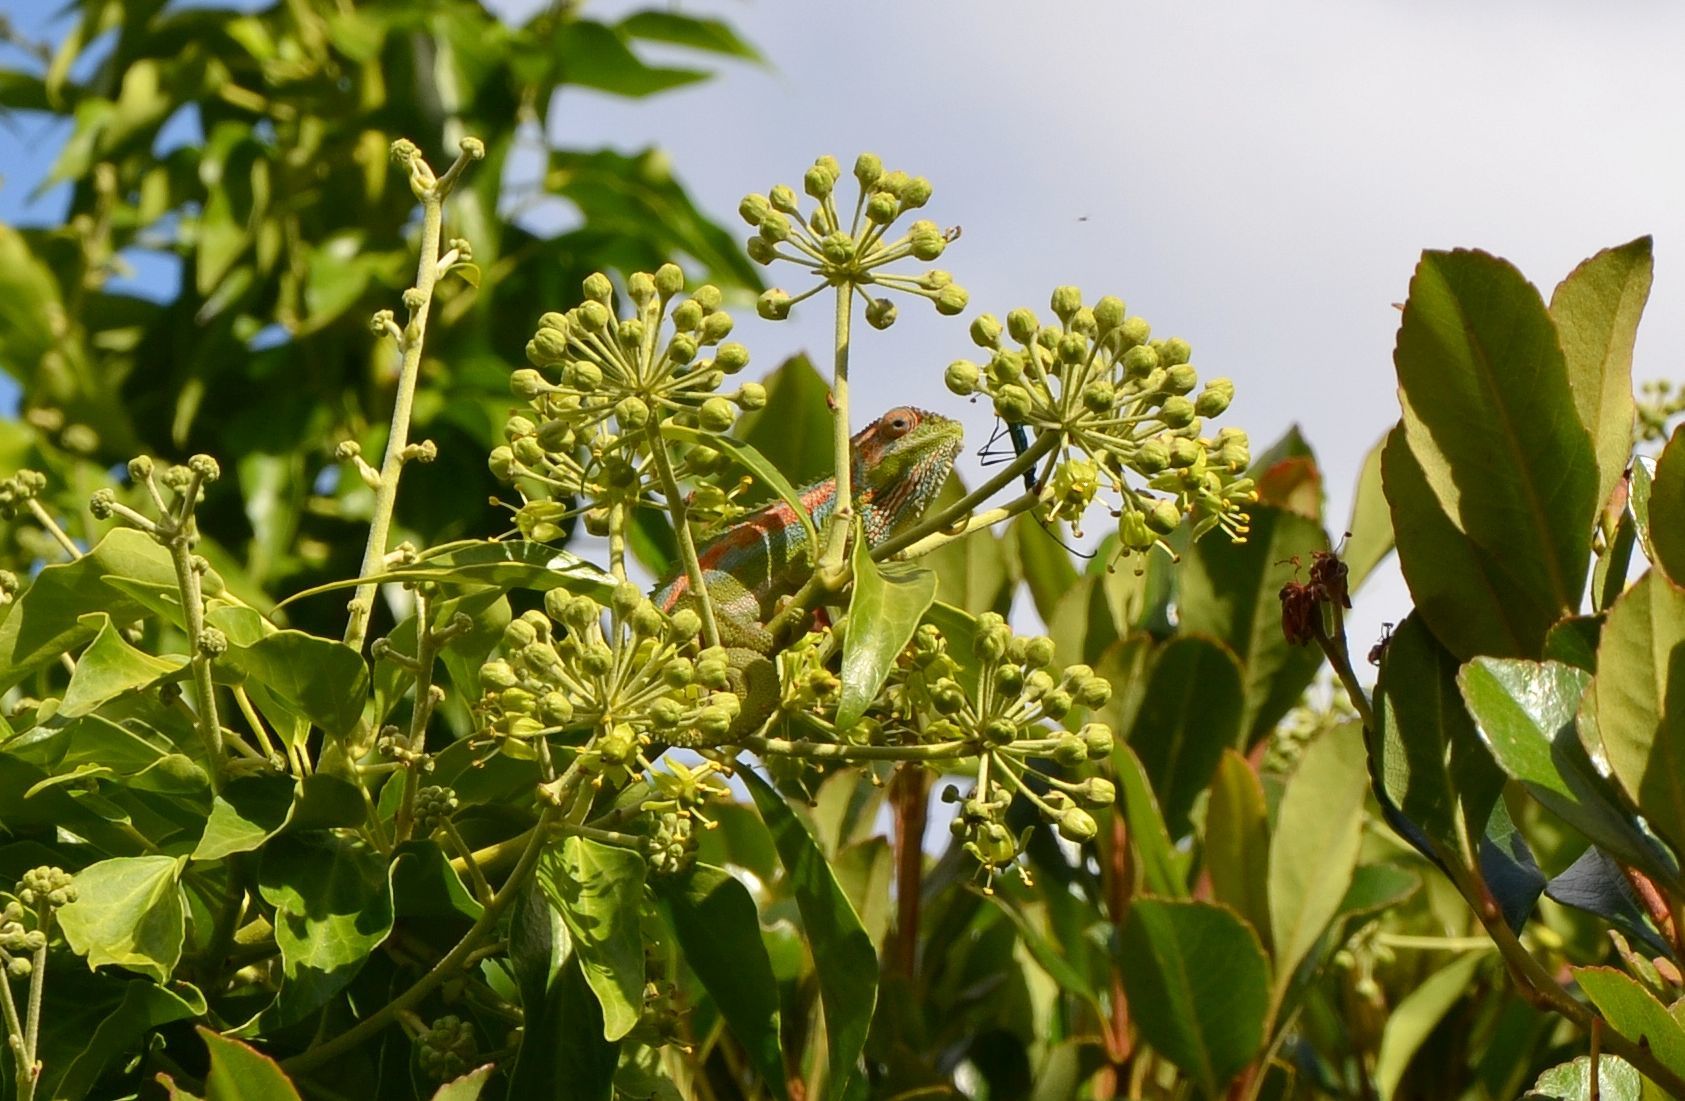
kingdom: Animalia
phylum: Chordata
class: Squamata
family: Chamaeleonidae
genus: Bradypodion
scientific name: Bradypodion pumilum
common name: Cape dwarf chameleon
